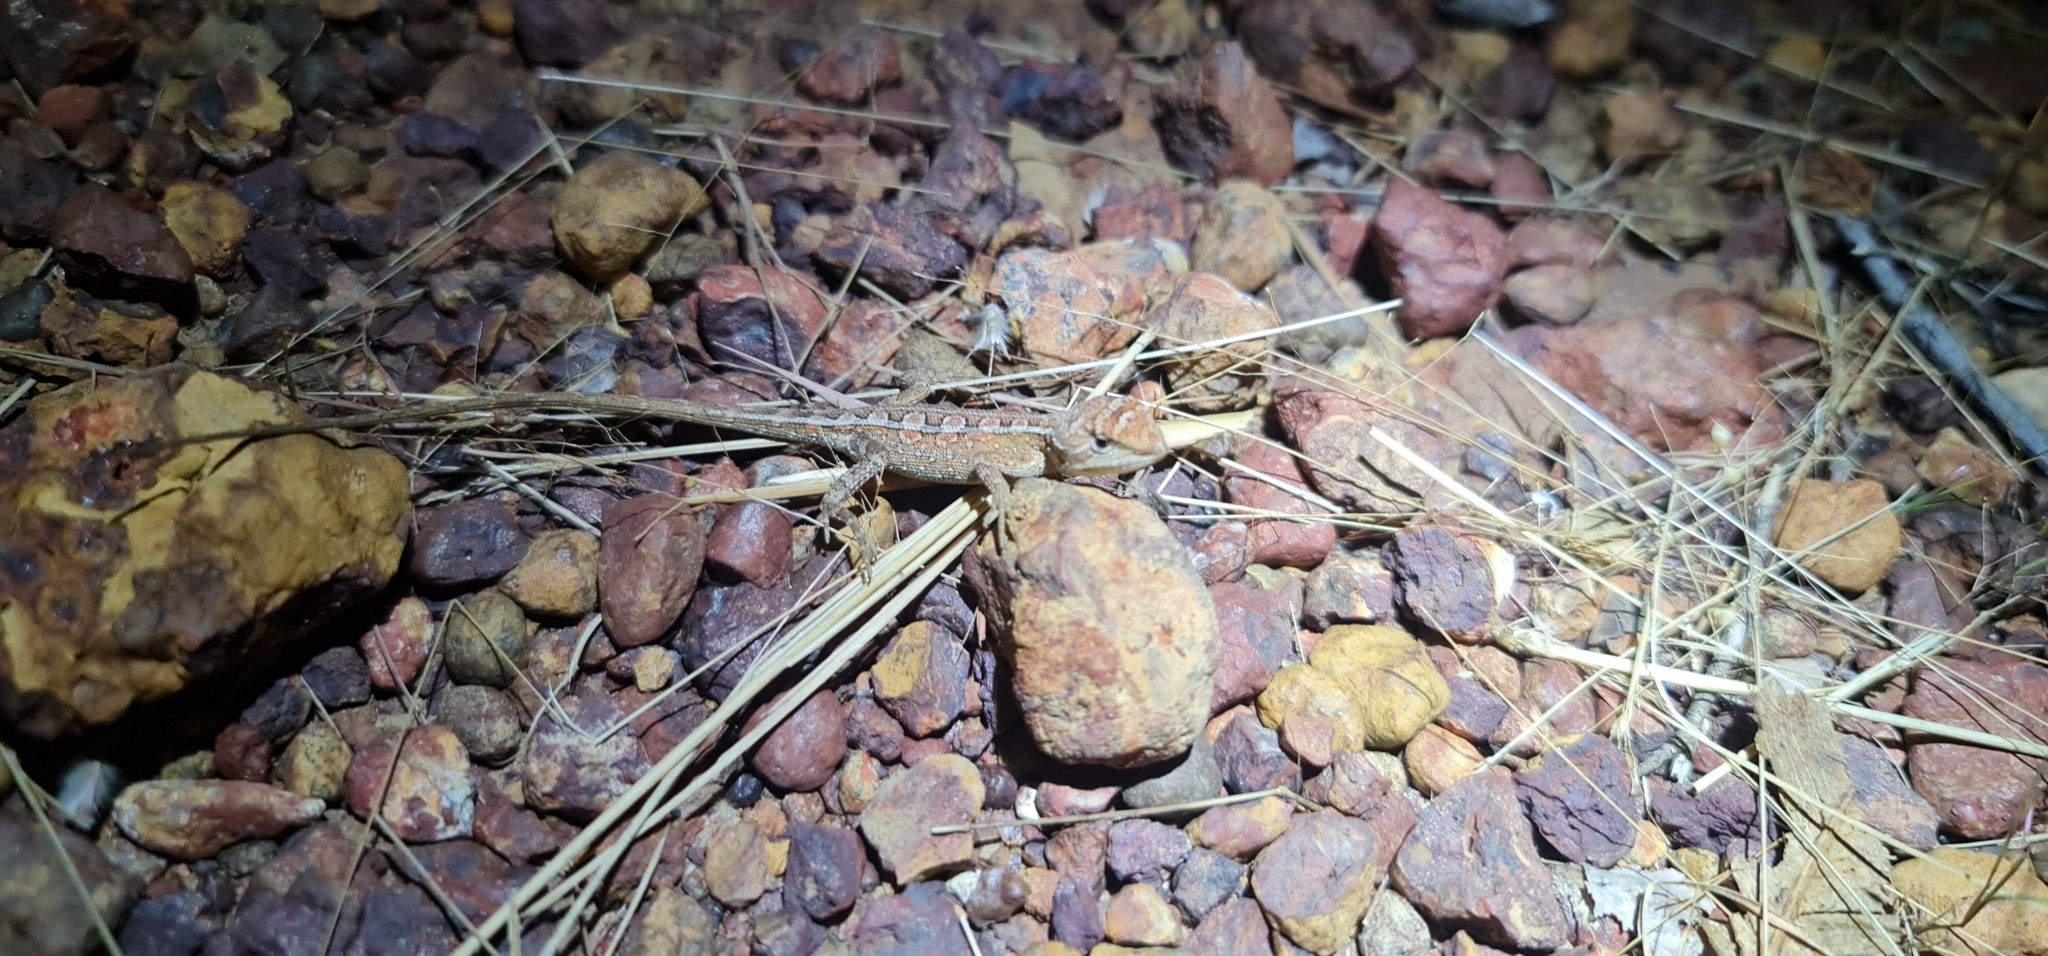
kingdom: Animalia
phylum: Chordata
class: Squamata
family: Agamidae
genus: Diporiphora
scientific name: Diporiphora bilineata
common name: Northern two-line dragon
